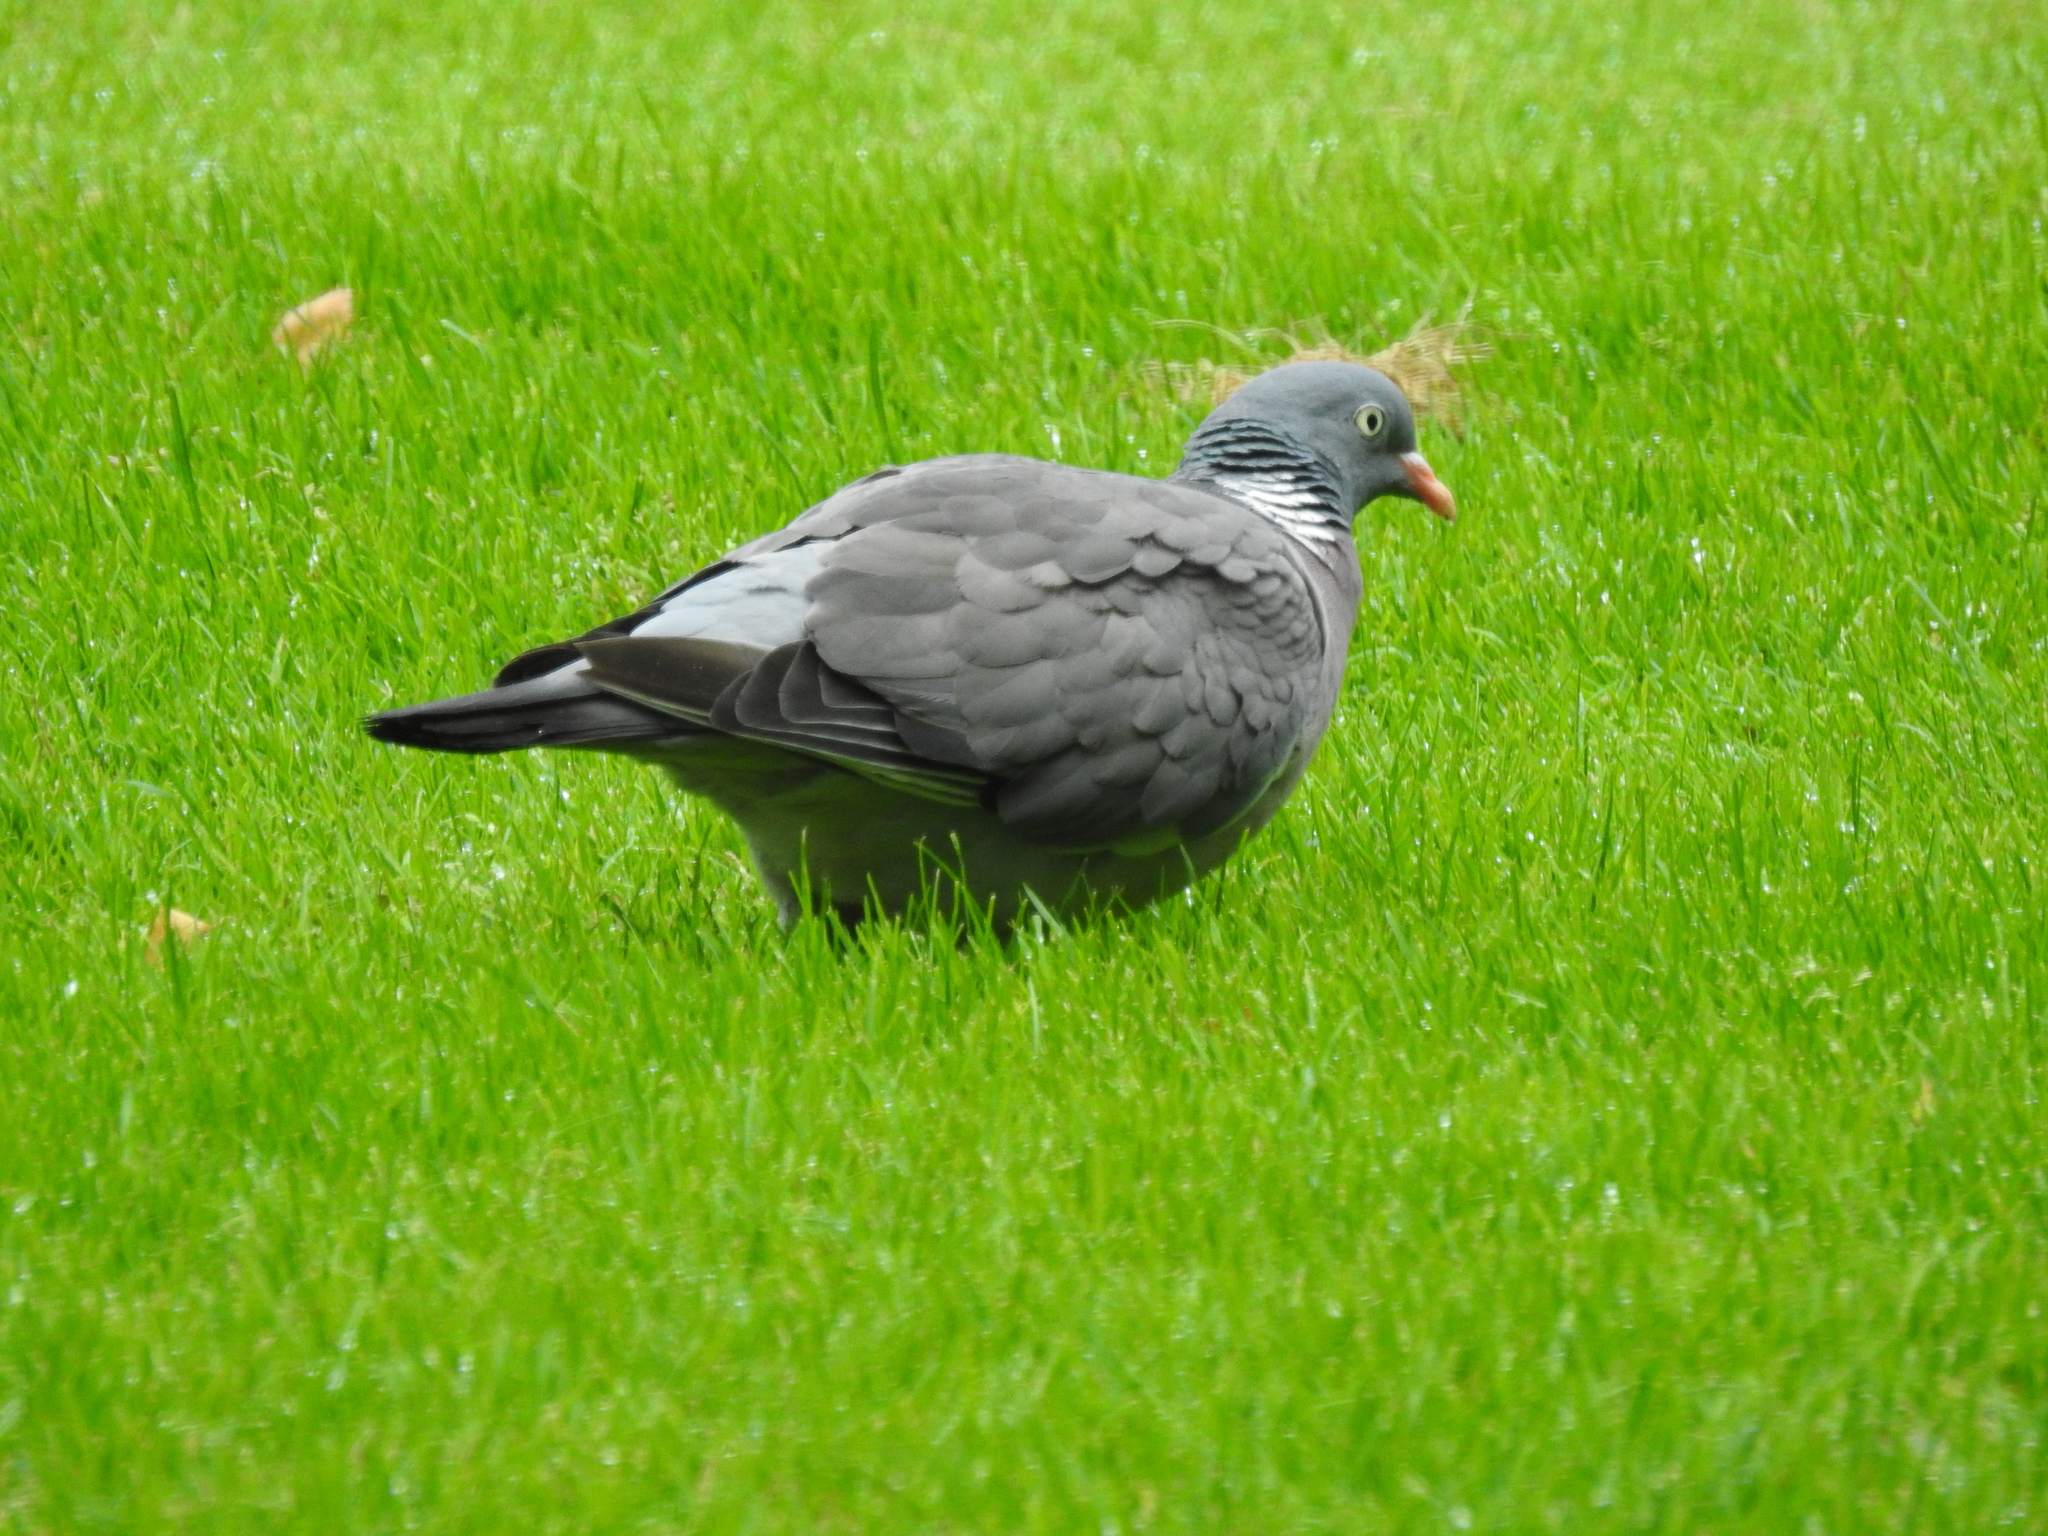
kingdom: Animalia
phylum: Chordata
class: Aves
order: Columbiformes
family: Columbidae
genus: Columba
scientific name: Columba palumbus
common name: Common wood pigeon
